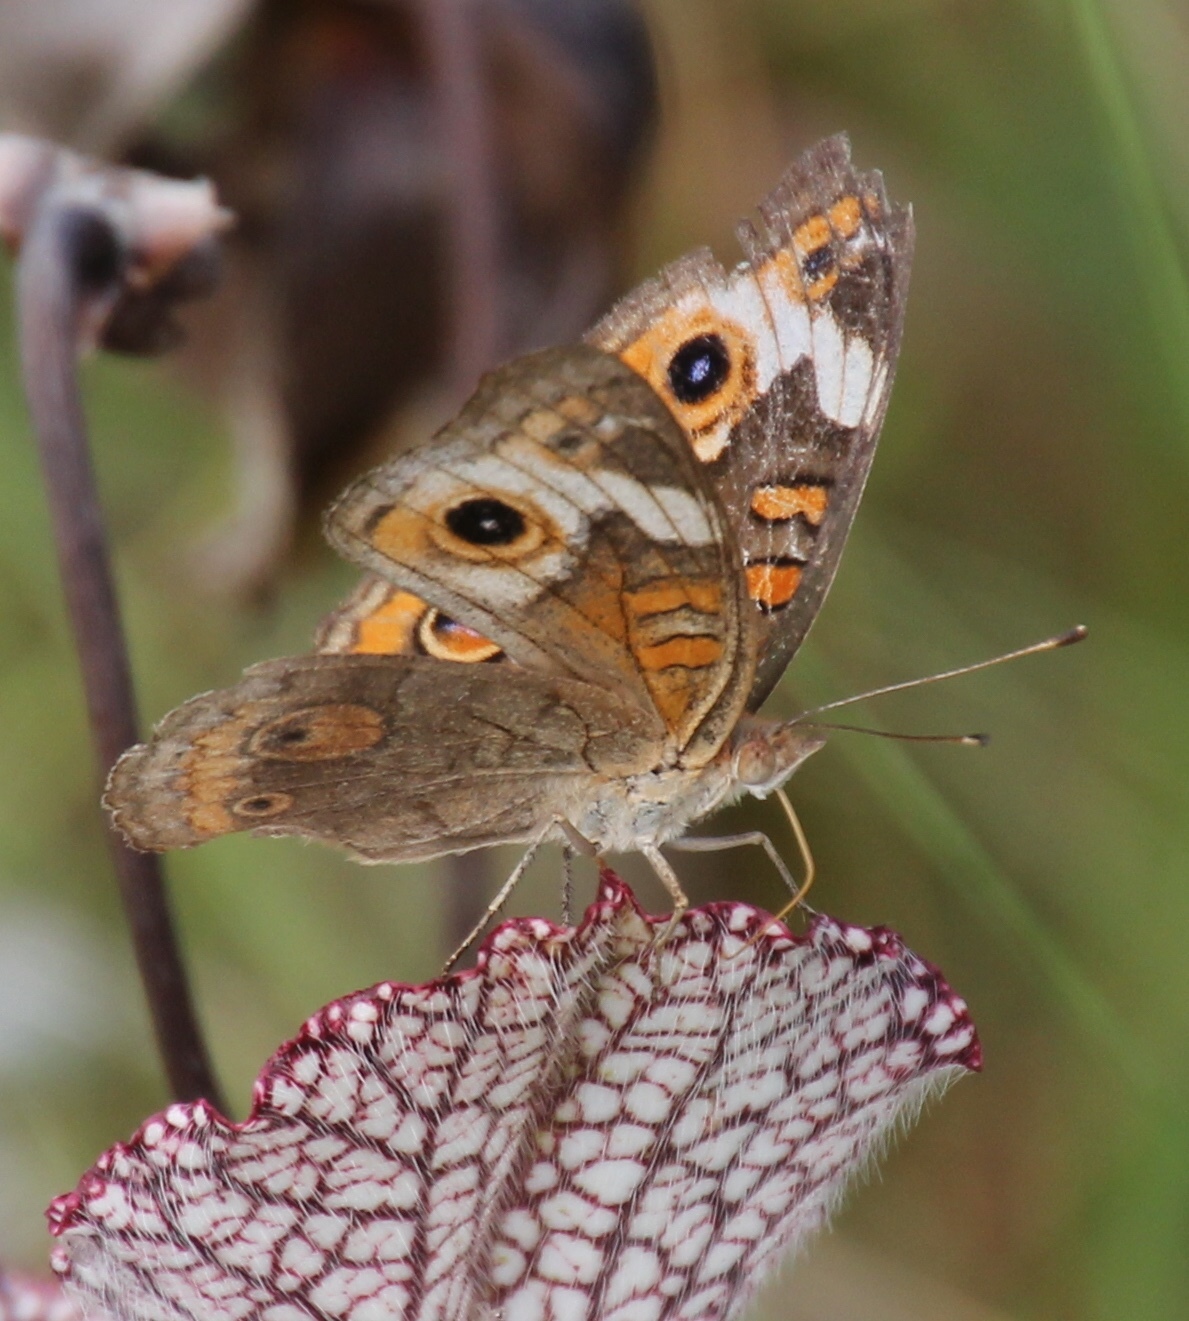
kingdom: Animalia
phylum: Arthropoda
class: Insecta
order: Lepidoptera
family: Nymphalidae
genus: Junonia
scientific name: Junonia coenia
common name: Common buckeye
